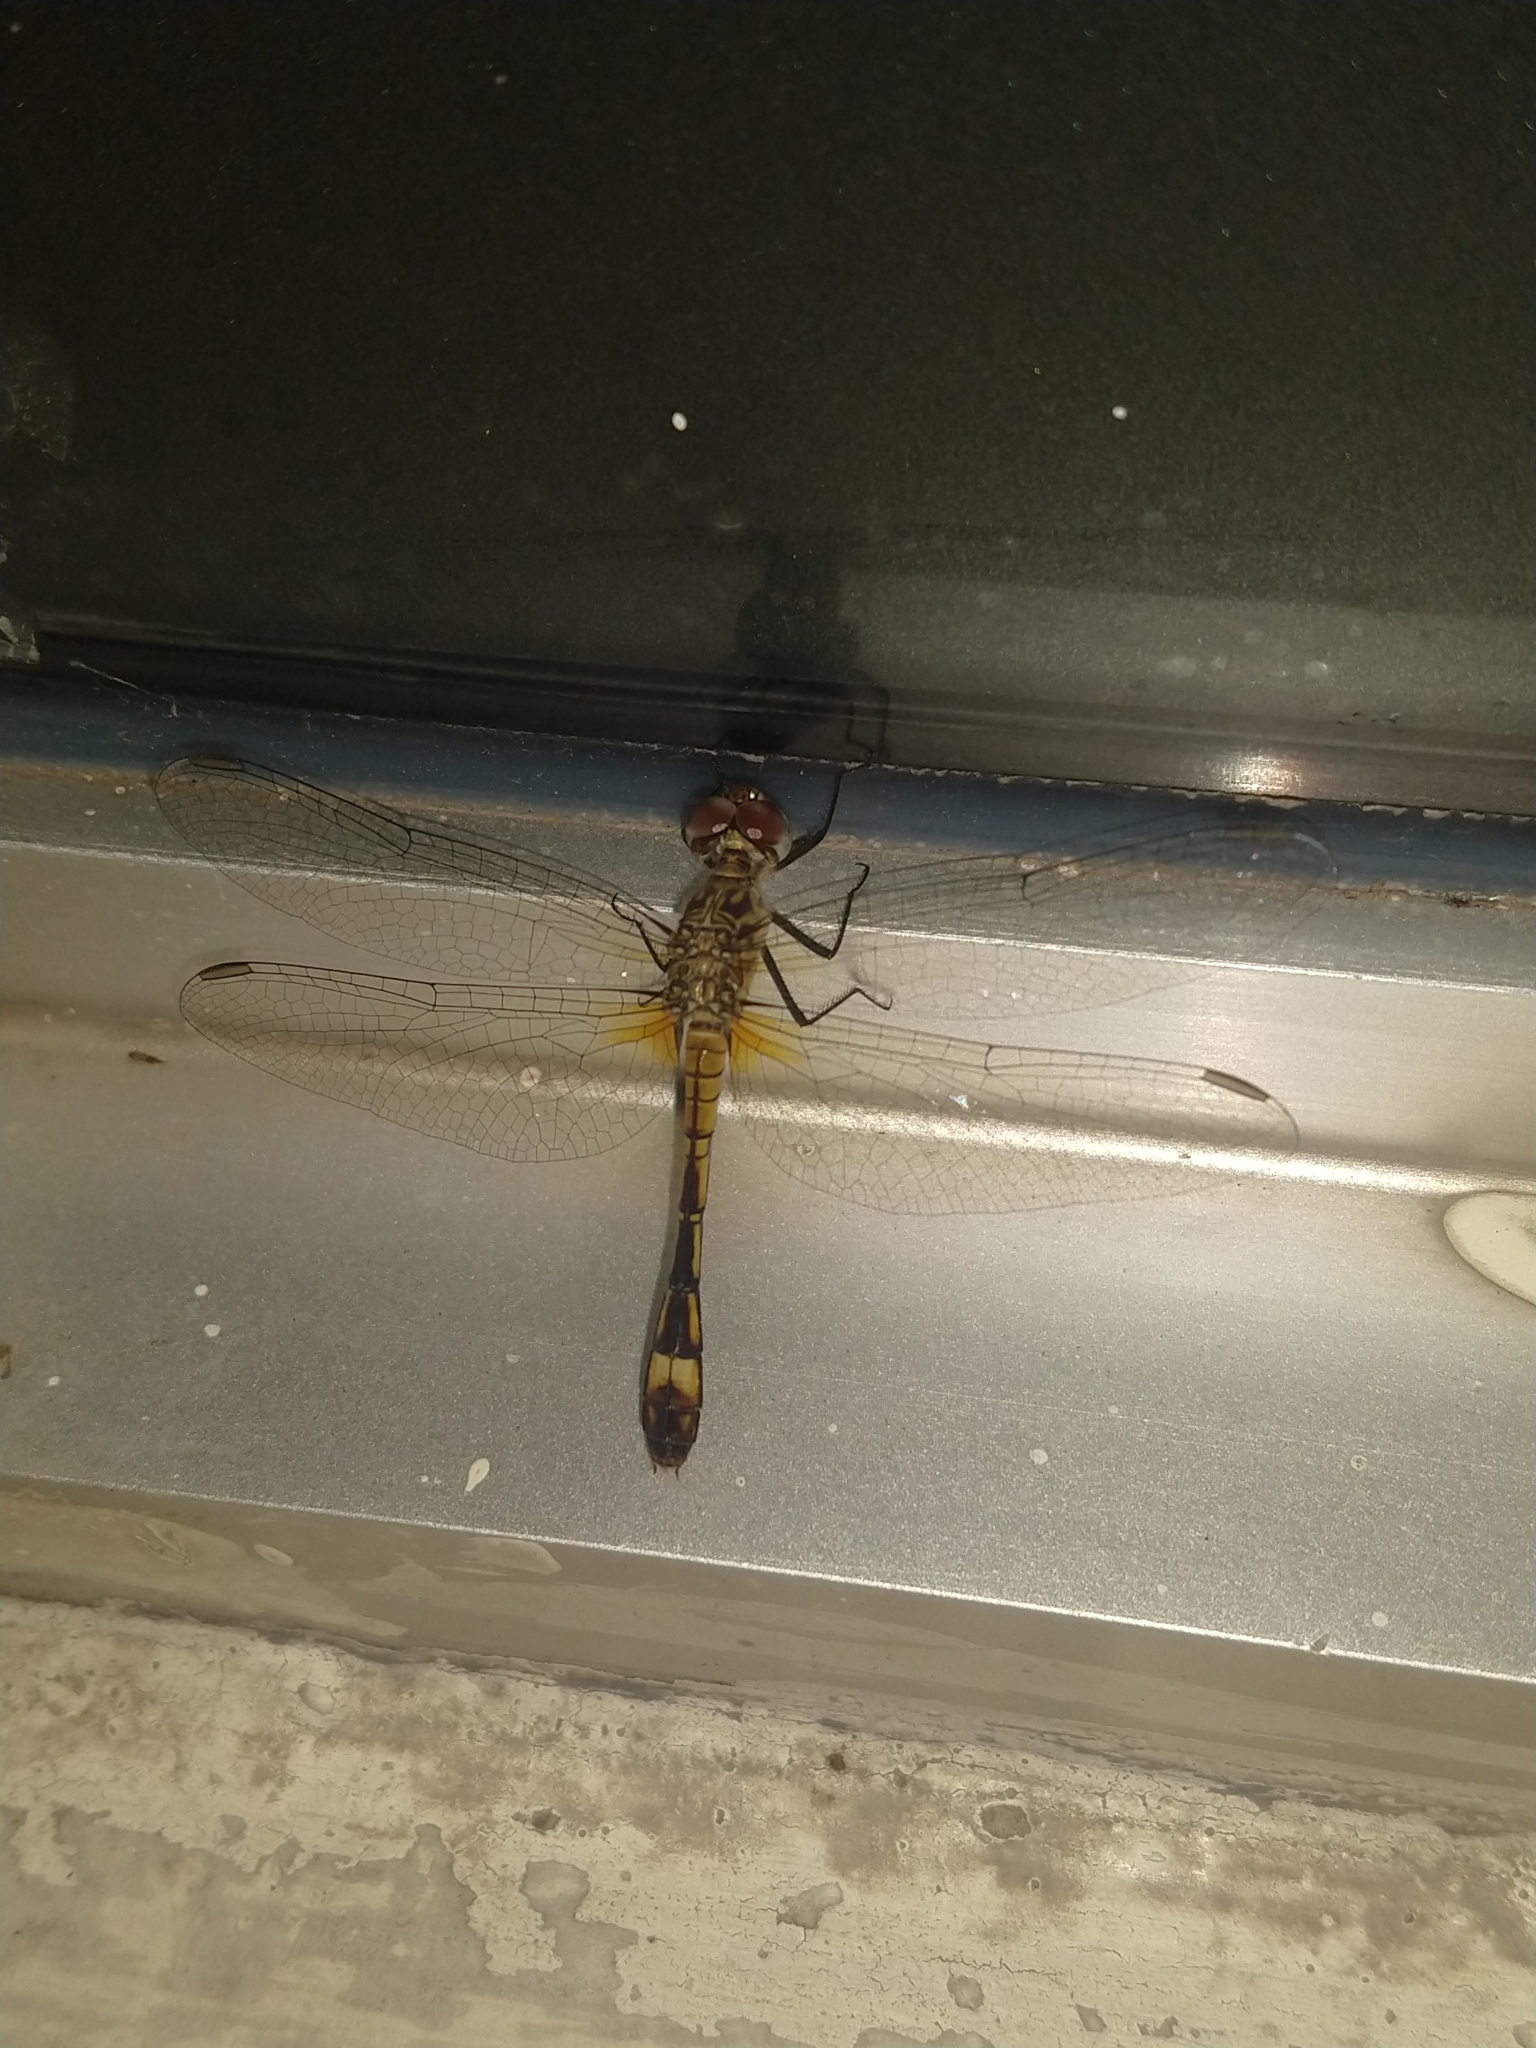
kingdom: Animalia
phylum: Arthropoda
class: Insecta
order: Odonata
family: Libellulidae
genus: Micrathyria
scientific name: Micrathyria longifasciata
